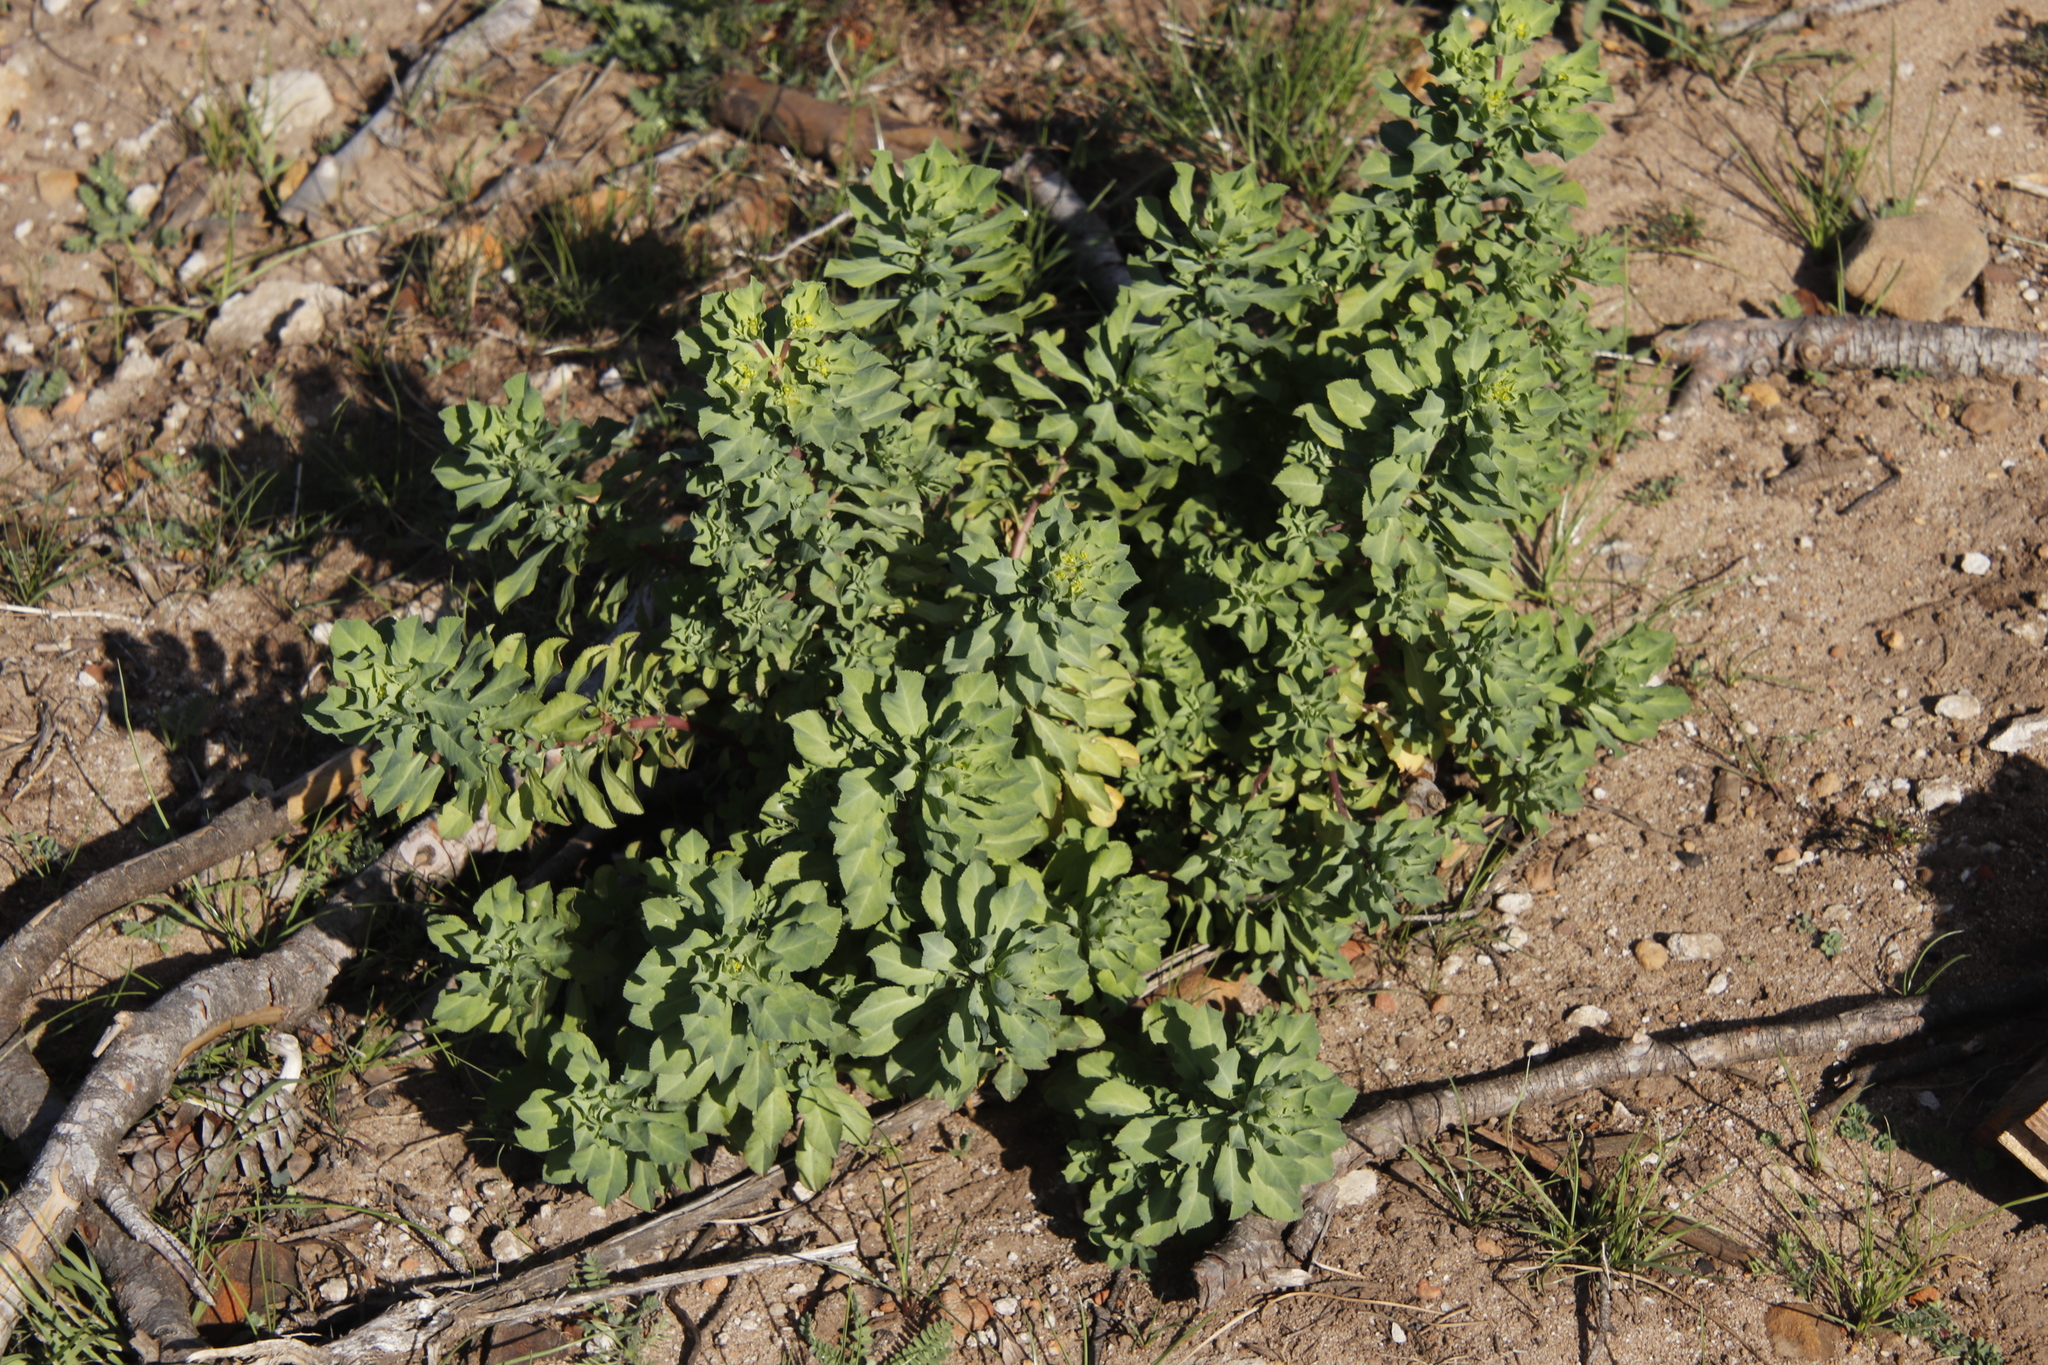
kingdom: Plantae
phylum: Tracheophyta
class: Magnoliopsida
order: Malpighiales
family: Euphorbiaceae
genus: Euphorbia
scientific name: Euphorbia helioscopia
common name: Sun spurge
